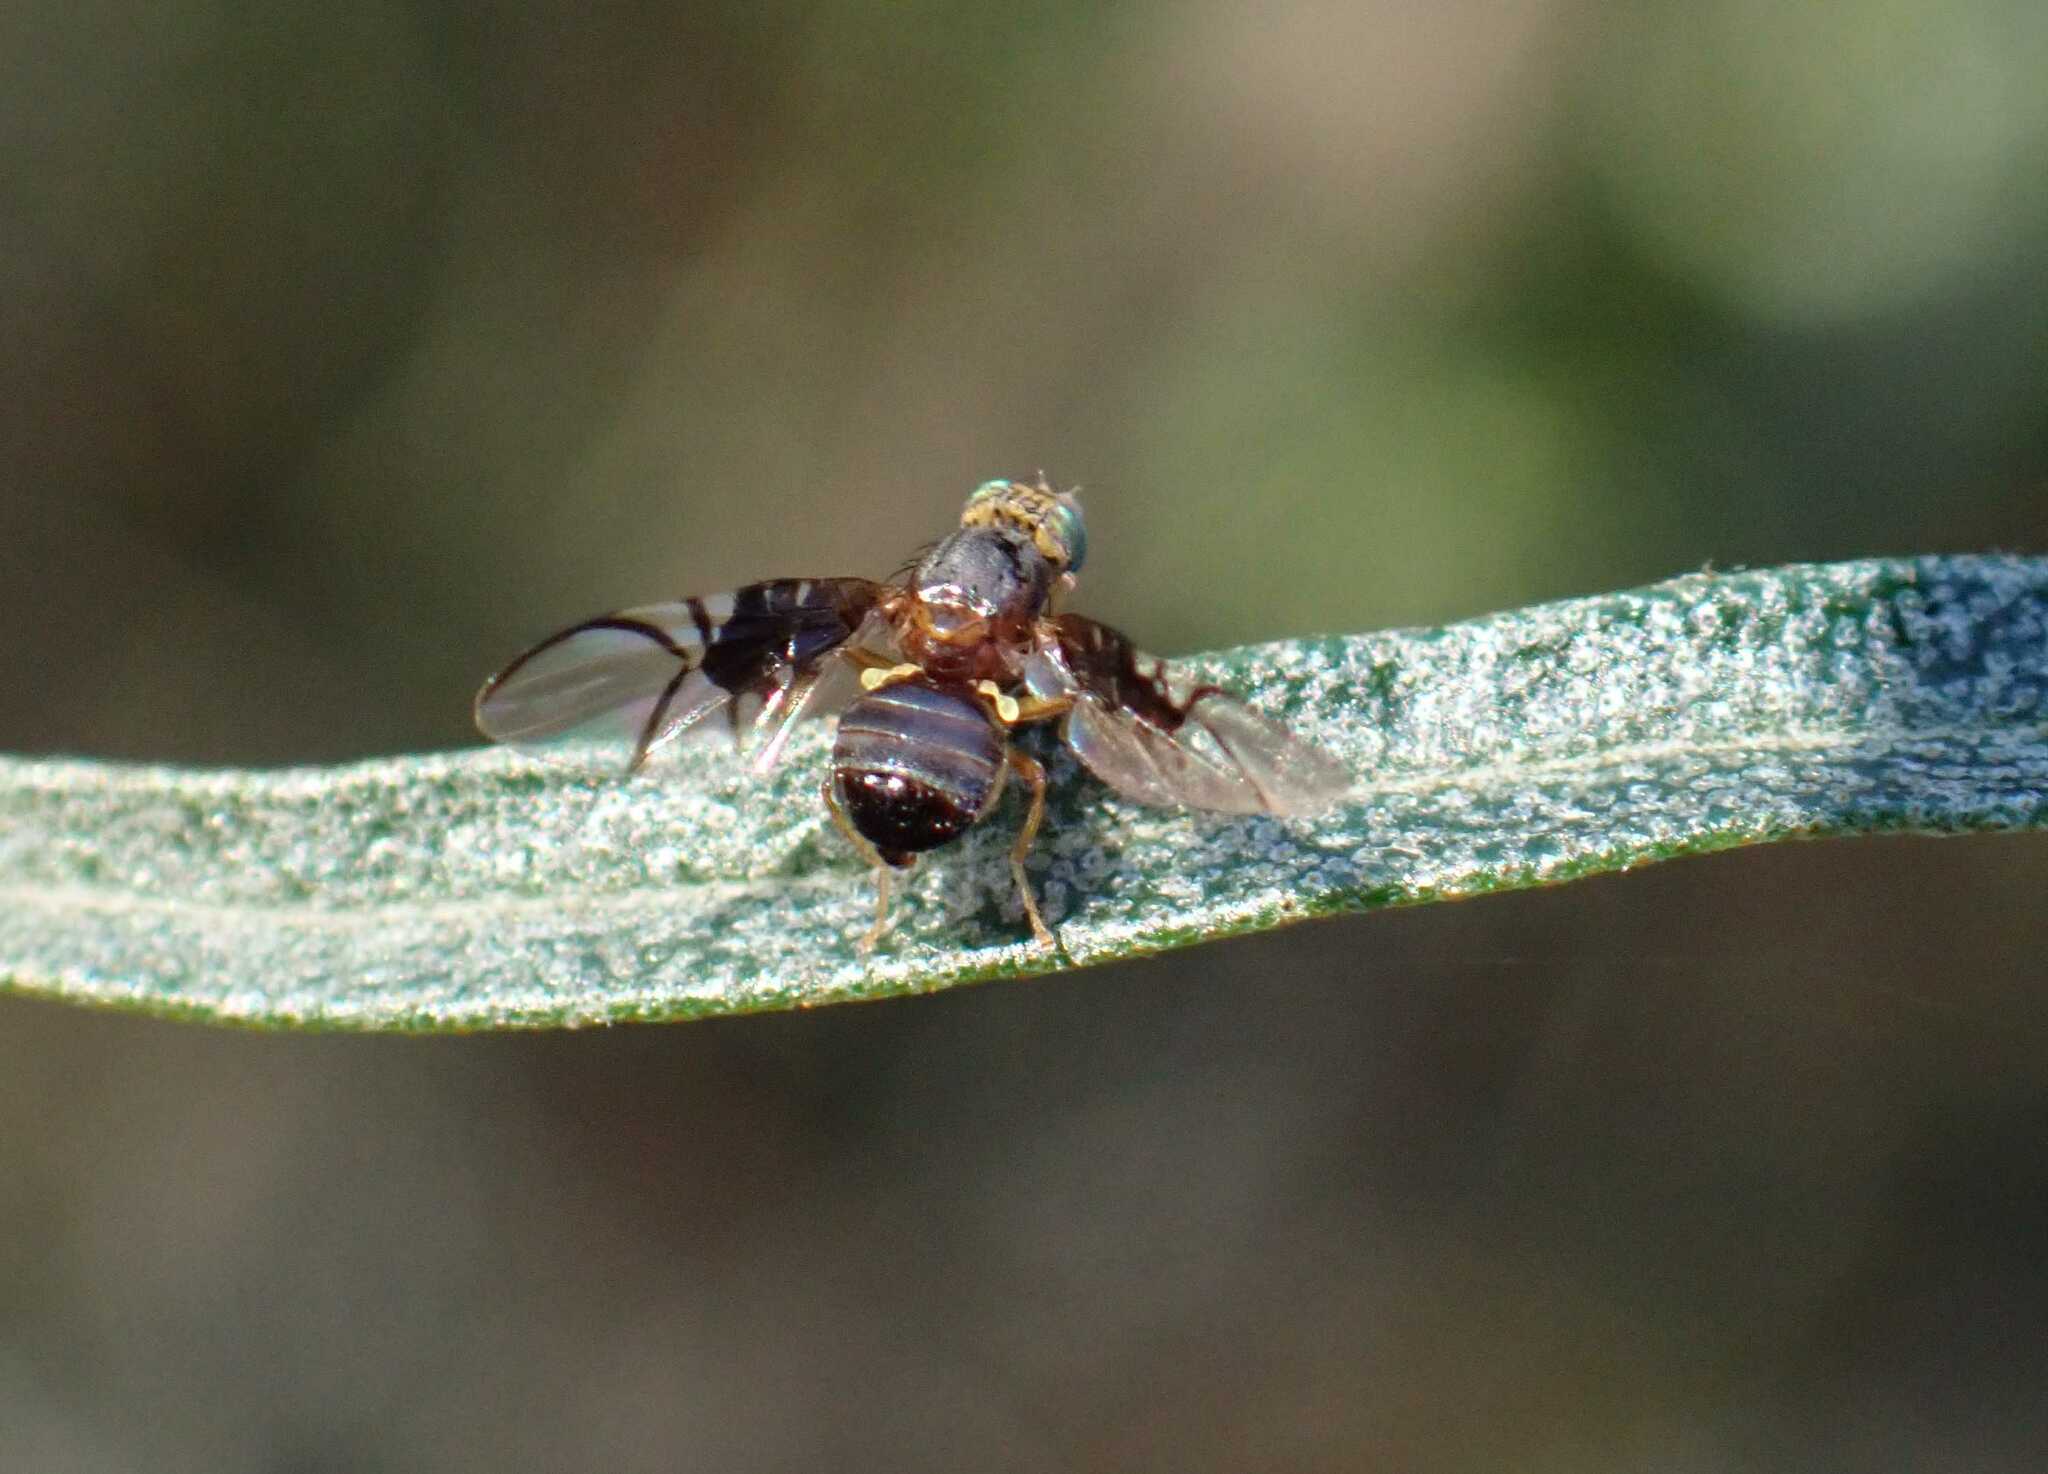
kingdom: Animalia
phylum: Arthropoda
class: Insecta
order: Diptera
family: Tephritidae
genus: Anomoia
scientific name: Anomoia purmunda
